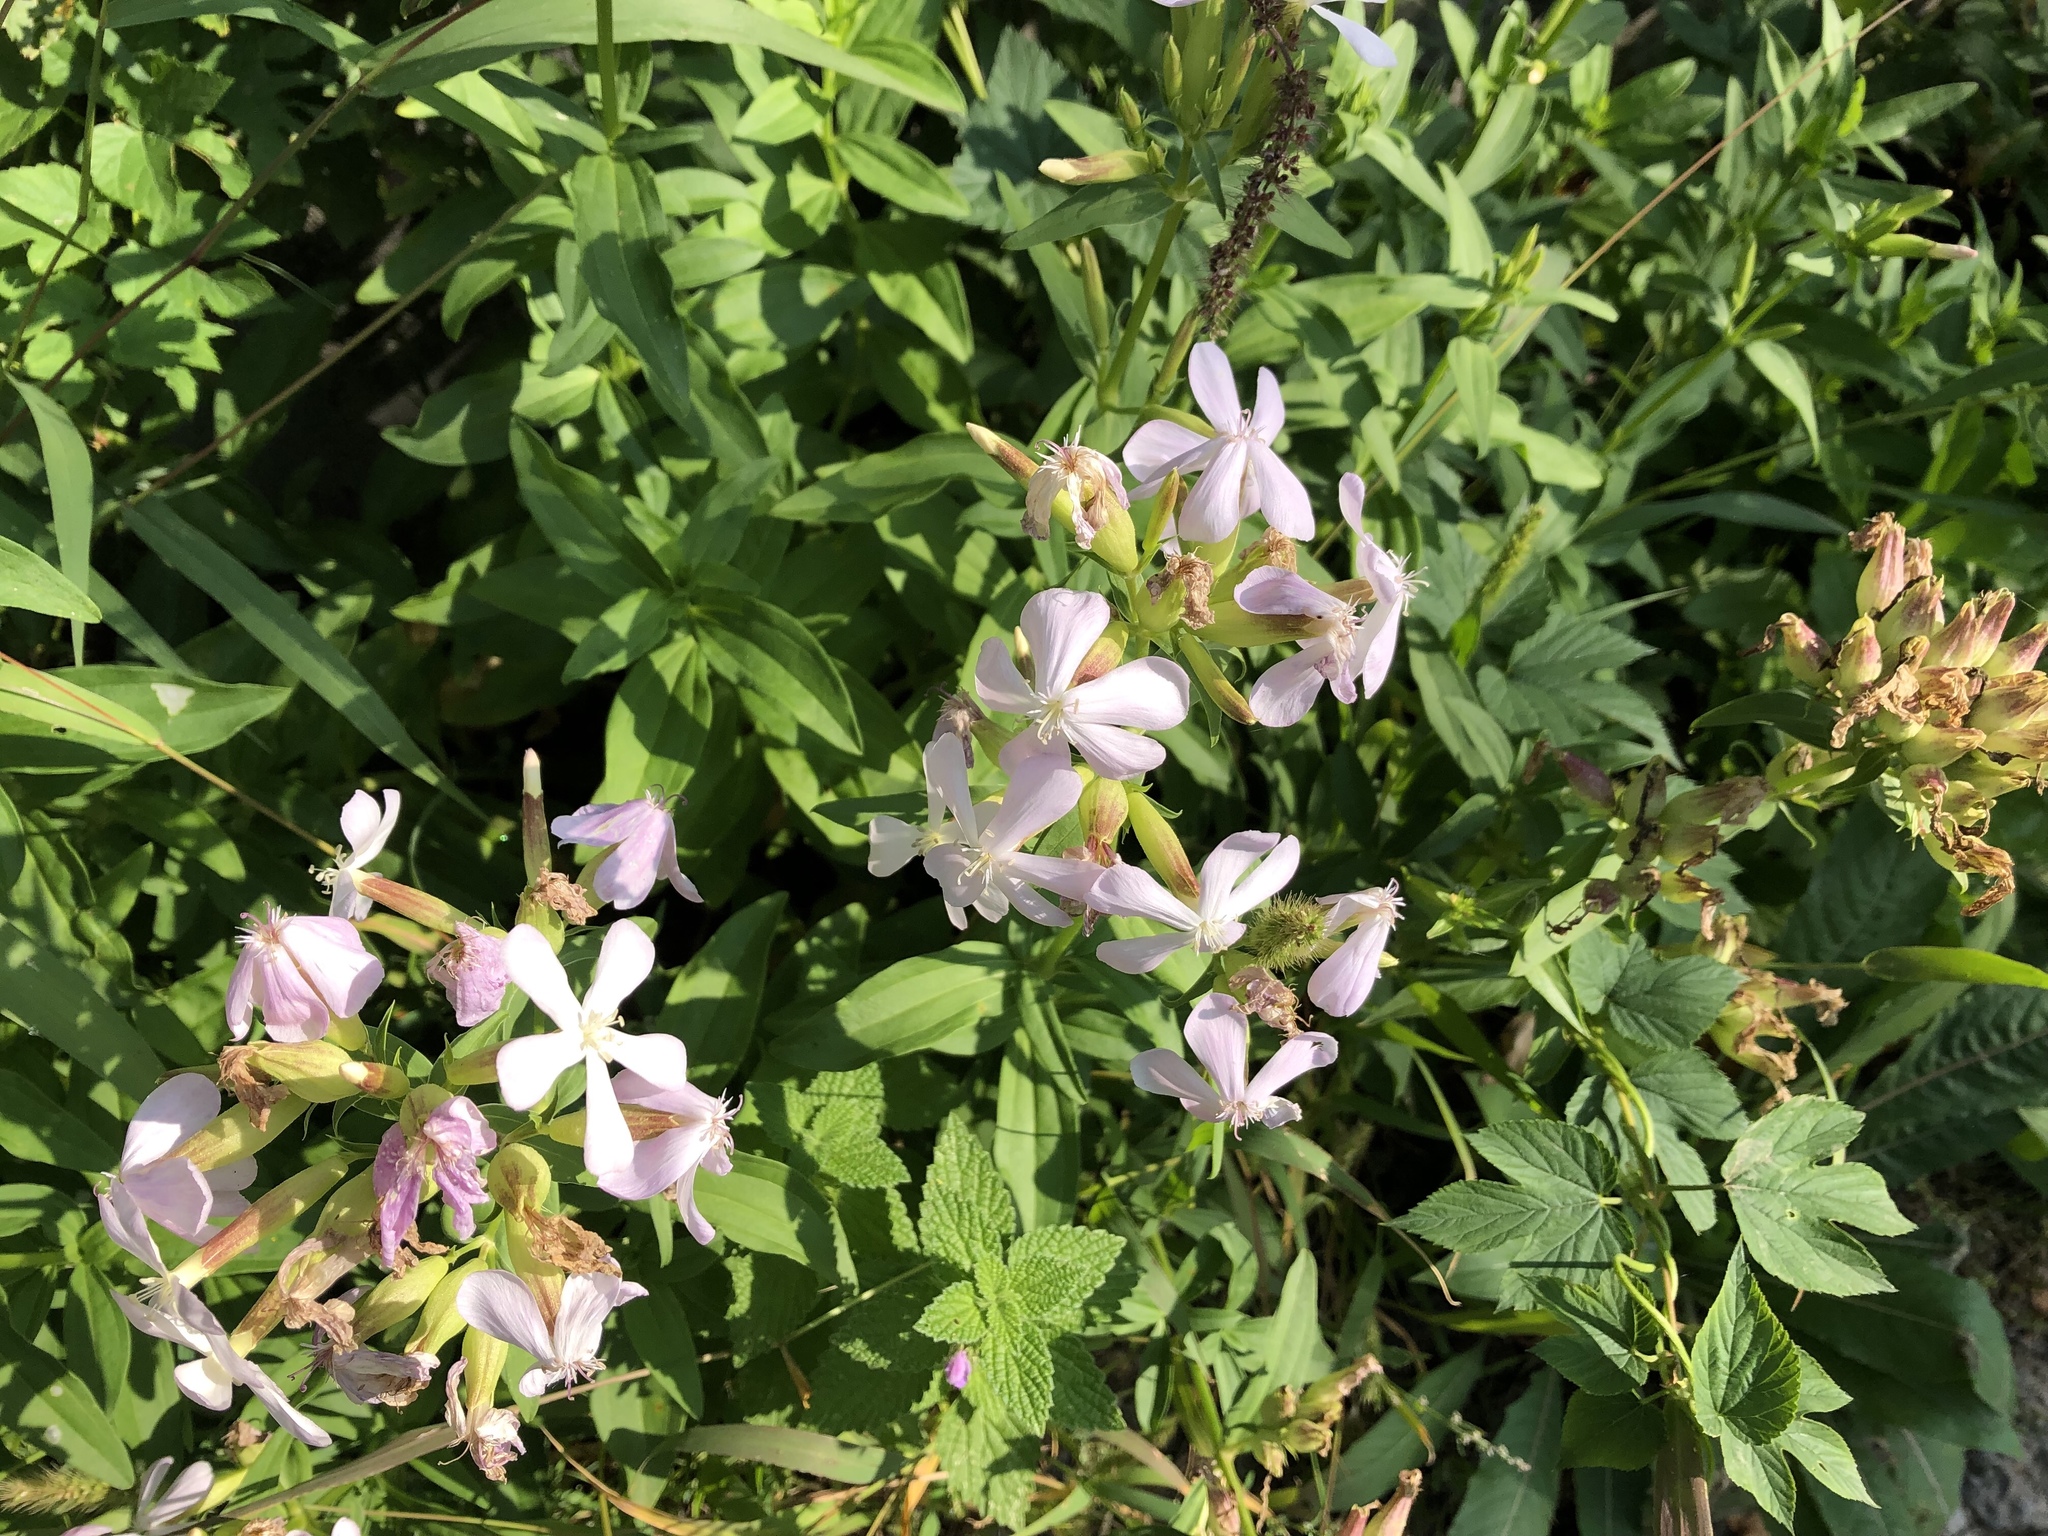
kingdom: Plantae
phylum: Tracheophyta
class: Magnoliopsida
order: Caryophyllales
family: Caryophyllaceae
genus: Saponaria
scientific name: Saponaria officinalis
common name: Soapwort
